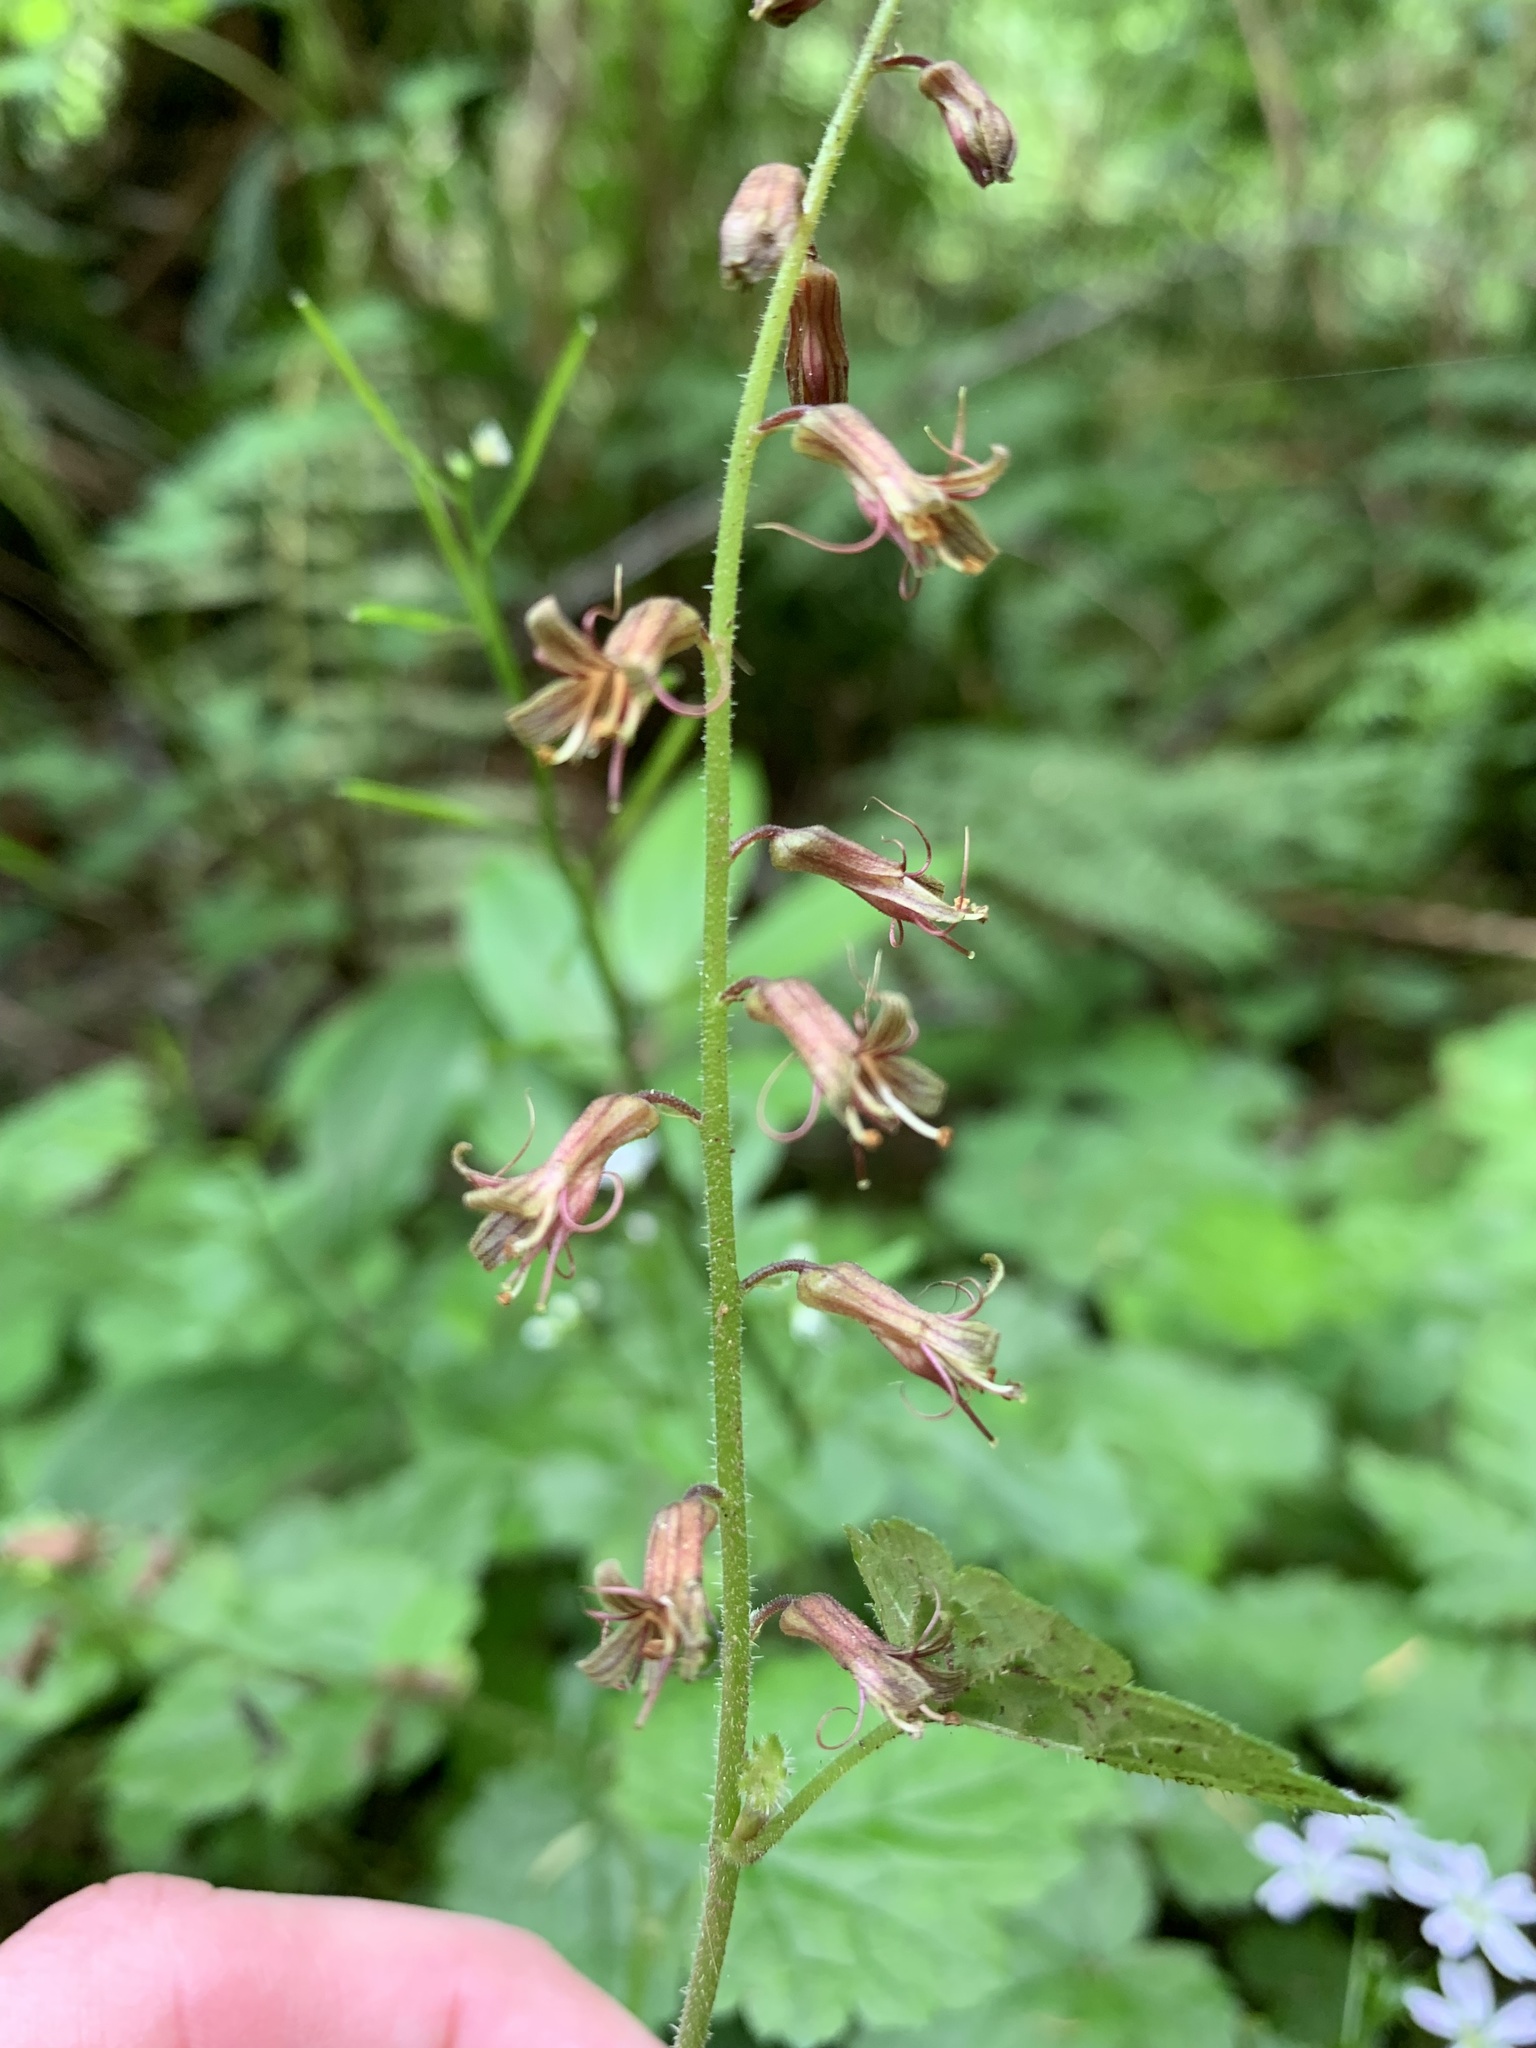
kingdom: Plantae
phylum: Tracheophyta
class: Magnoliopsida
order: Saxifragales
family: Saxifragaceae
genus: Tolmiea
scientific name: Tolmiea diplomenziesii
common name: Youth on age
